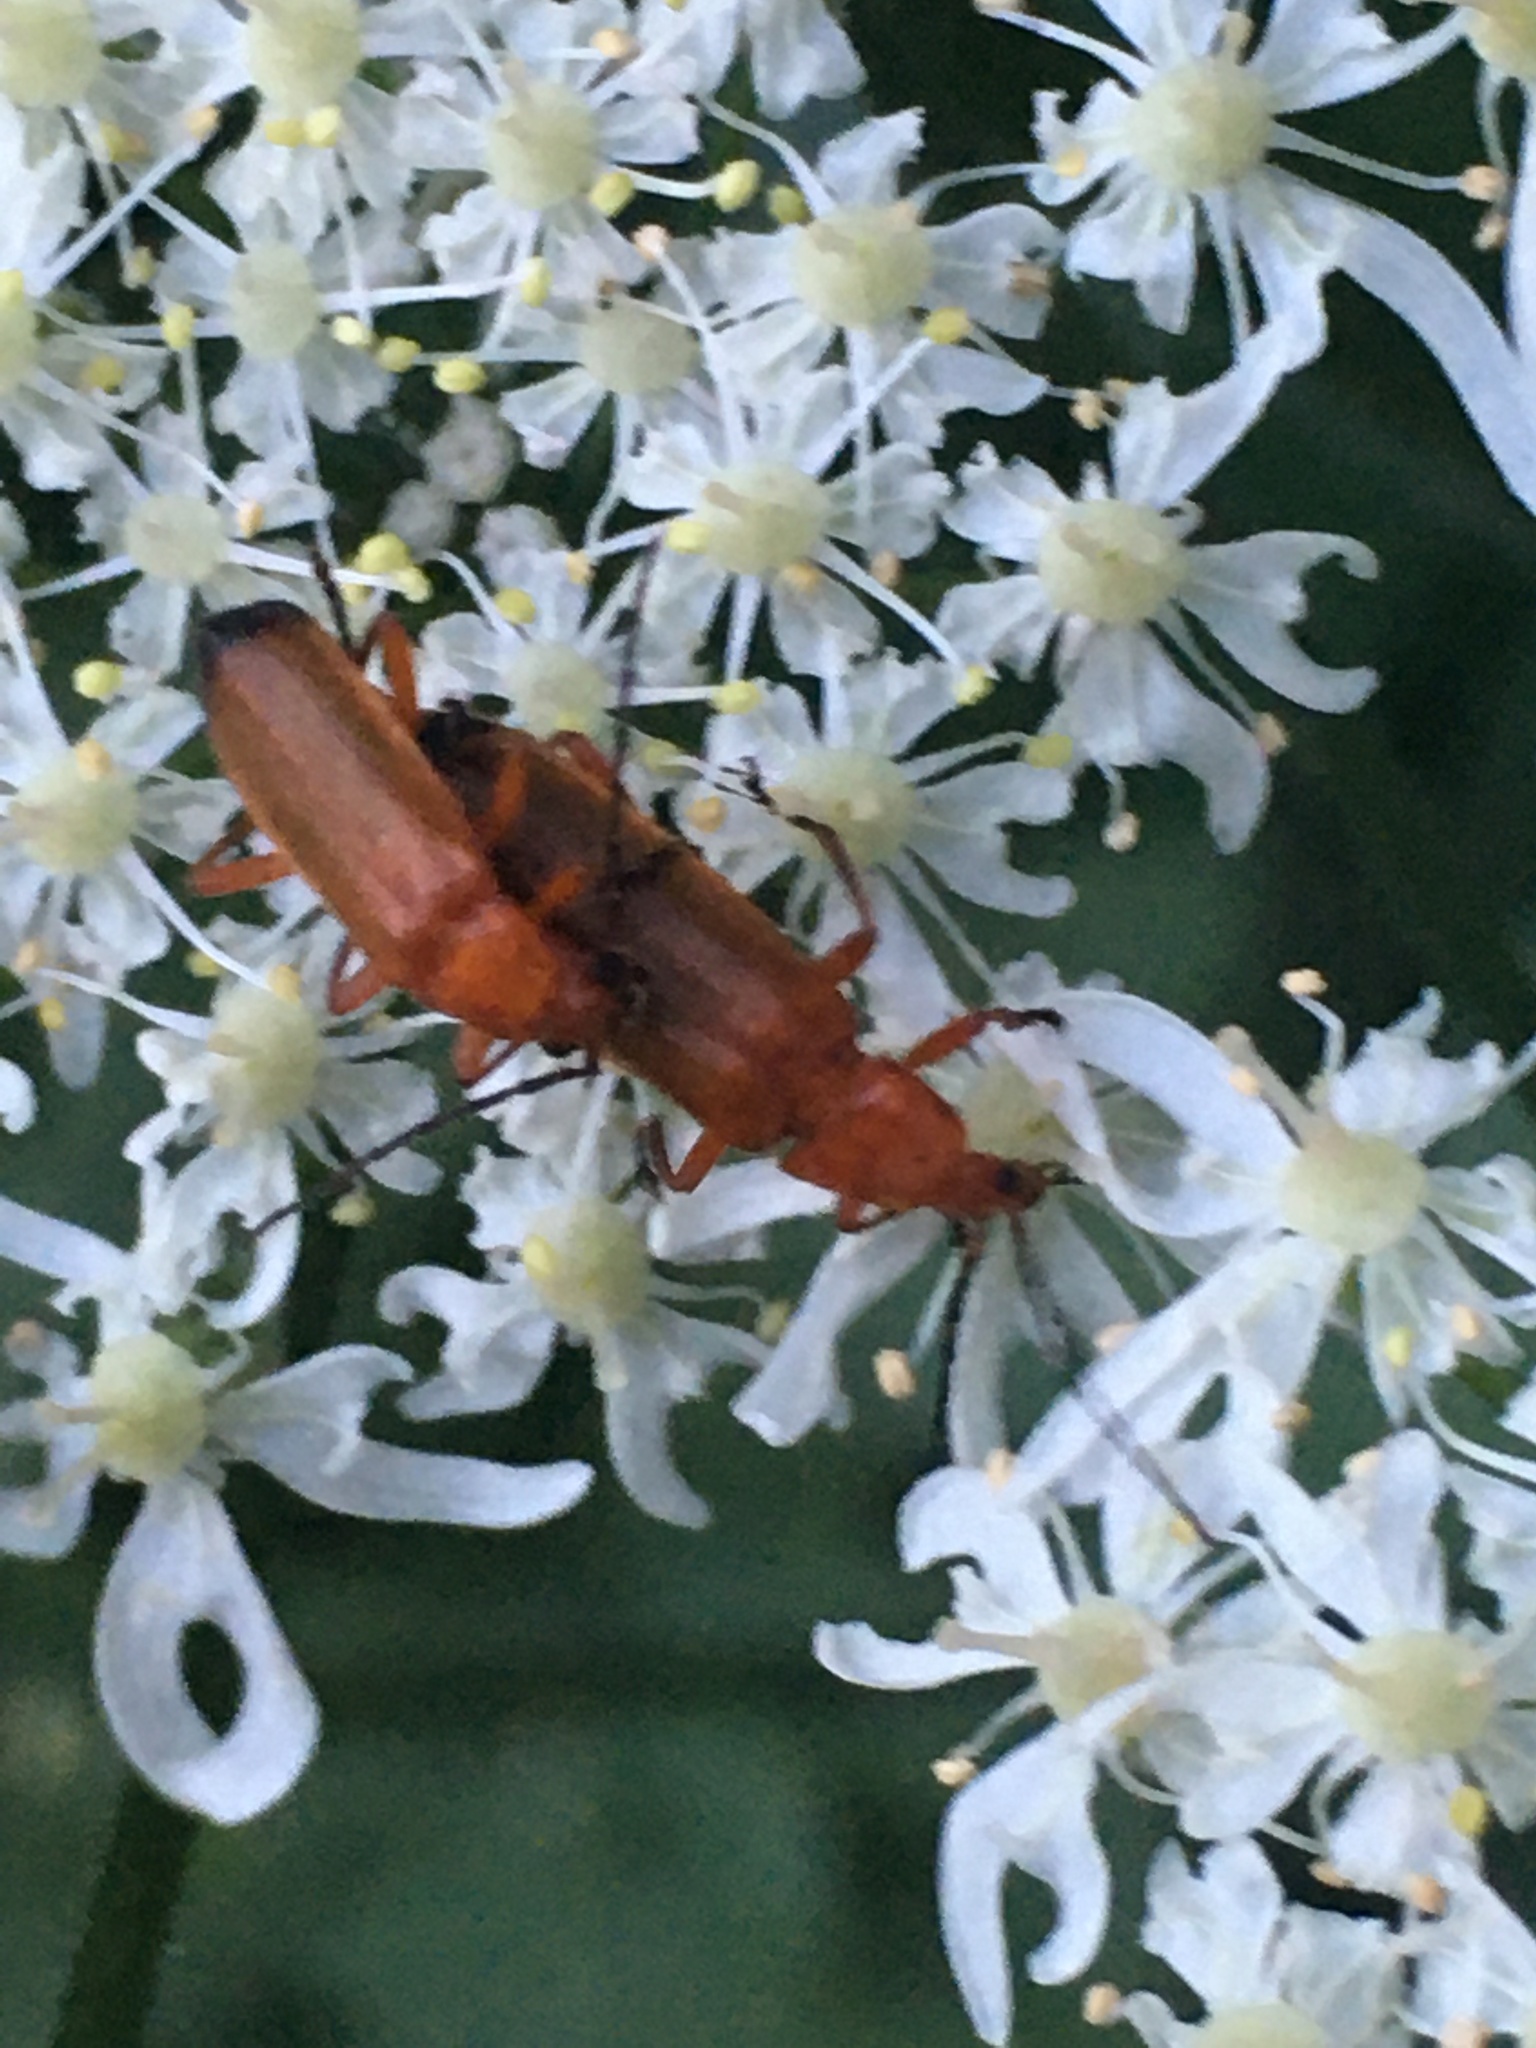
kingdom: Animalia
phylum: Arthropoda
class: Insecta
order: Coleoptera
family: Cantharidae
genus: Rhagonycha
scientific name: Rhagonycha fulva
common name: Common red soldier beetle
